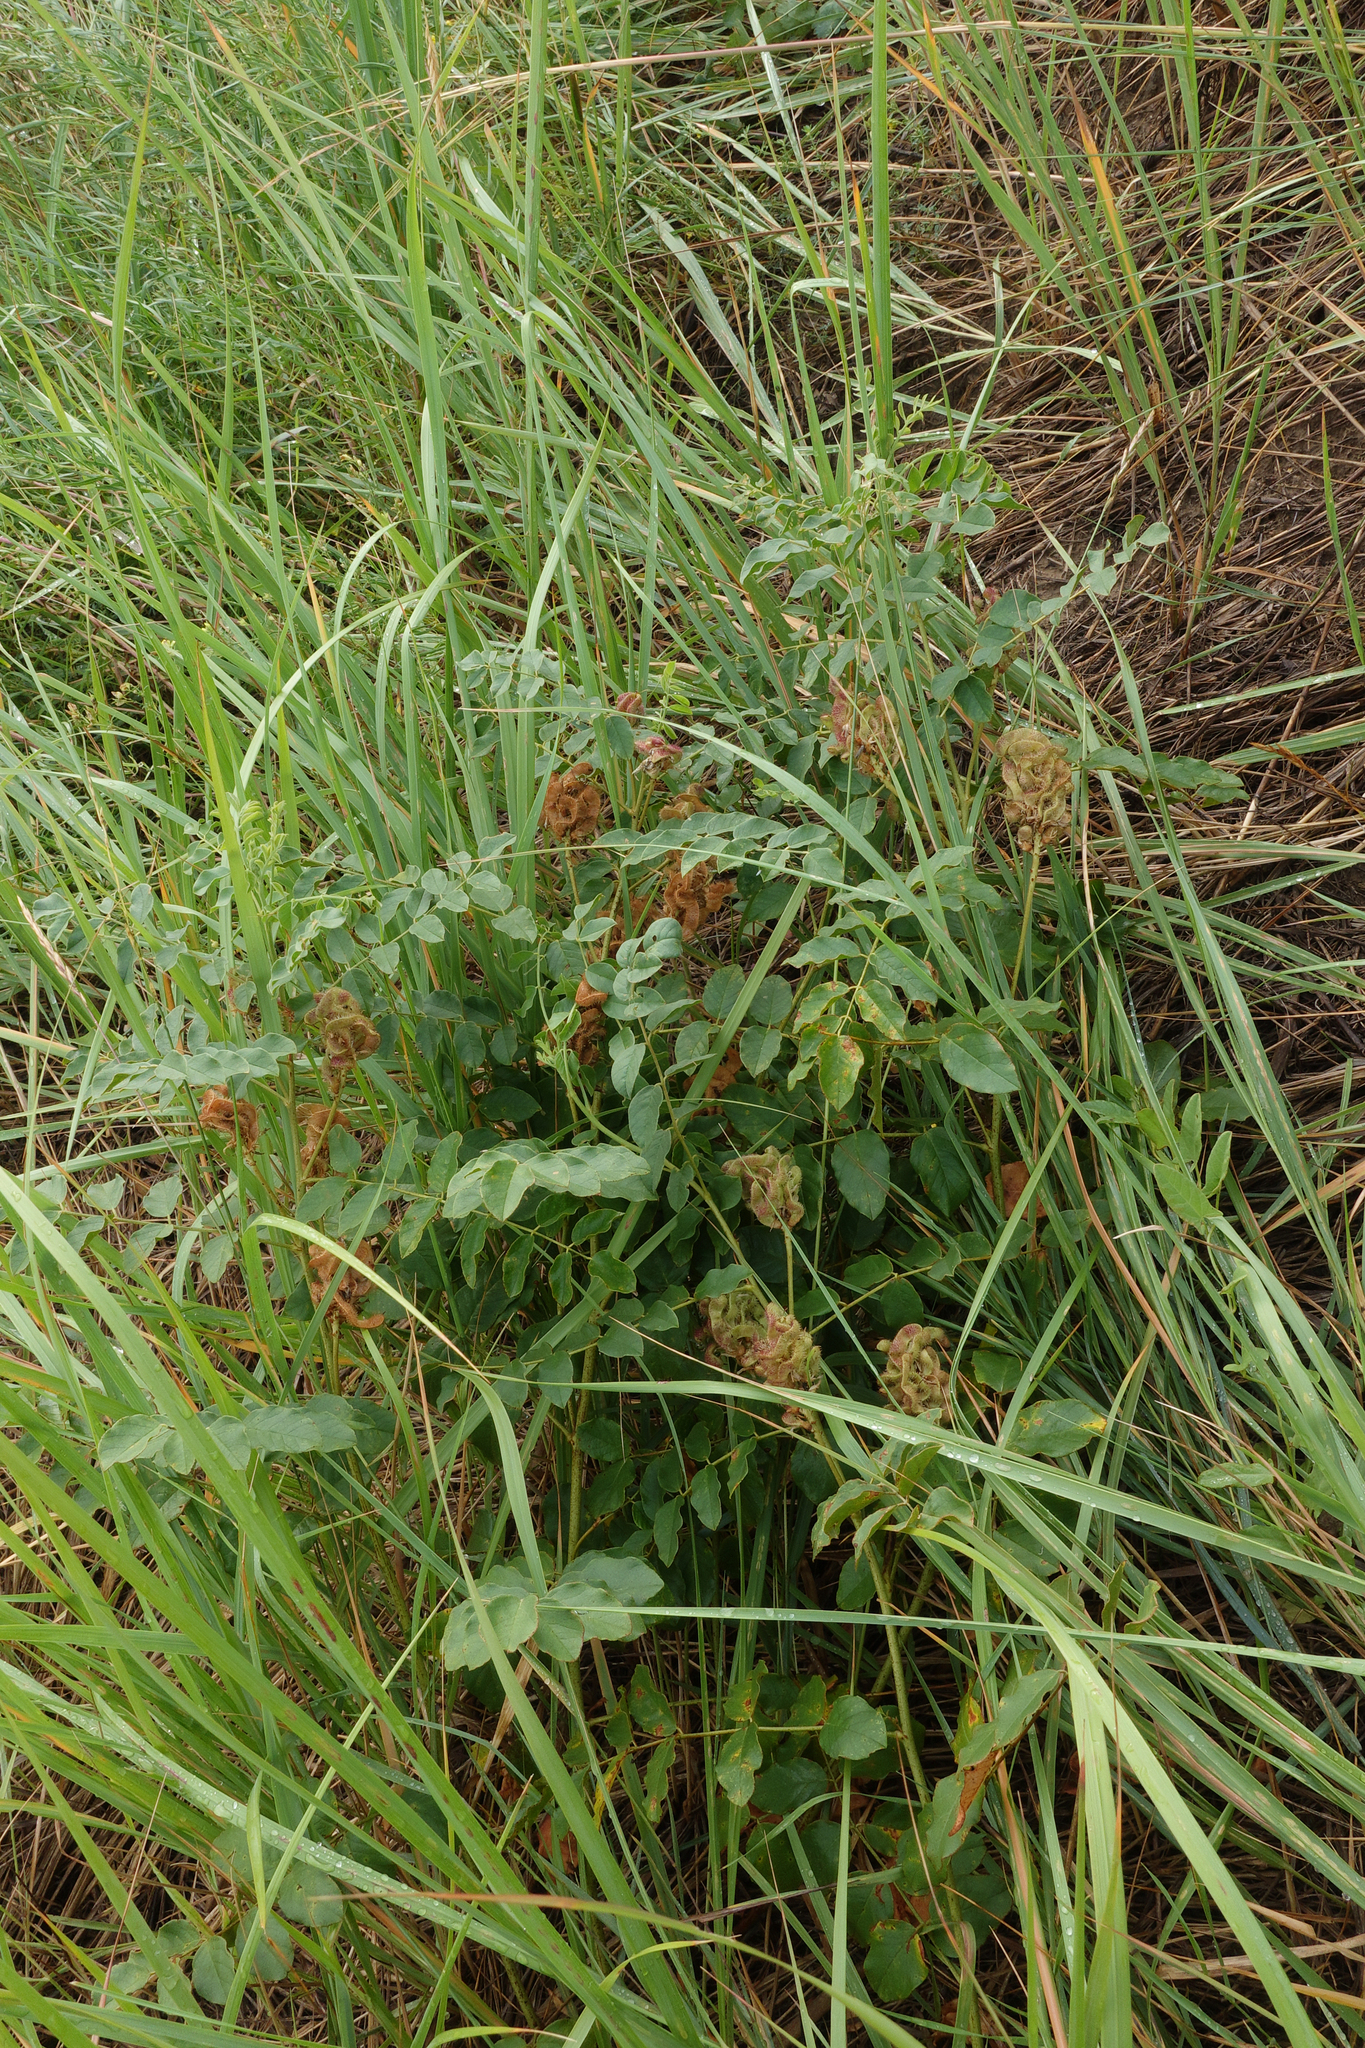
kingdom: Plantae
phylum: Tracheophyta
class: Magnoliopsida
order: Fabales
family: Fabaceae
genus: Glycyrrhiza
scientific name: Glycyrrhiza uralensis
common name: Chinese licorice
